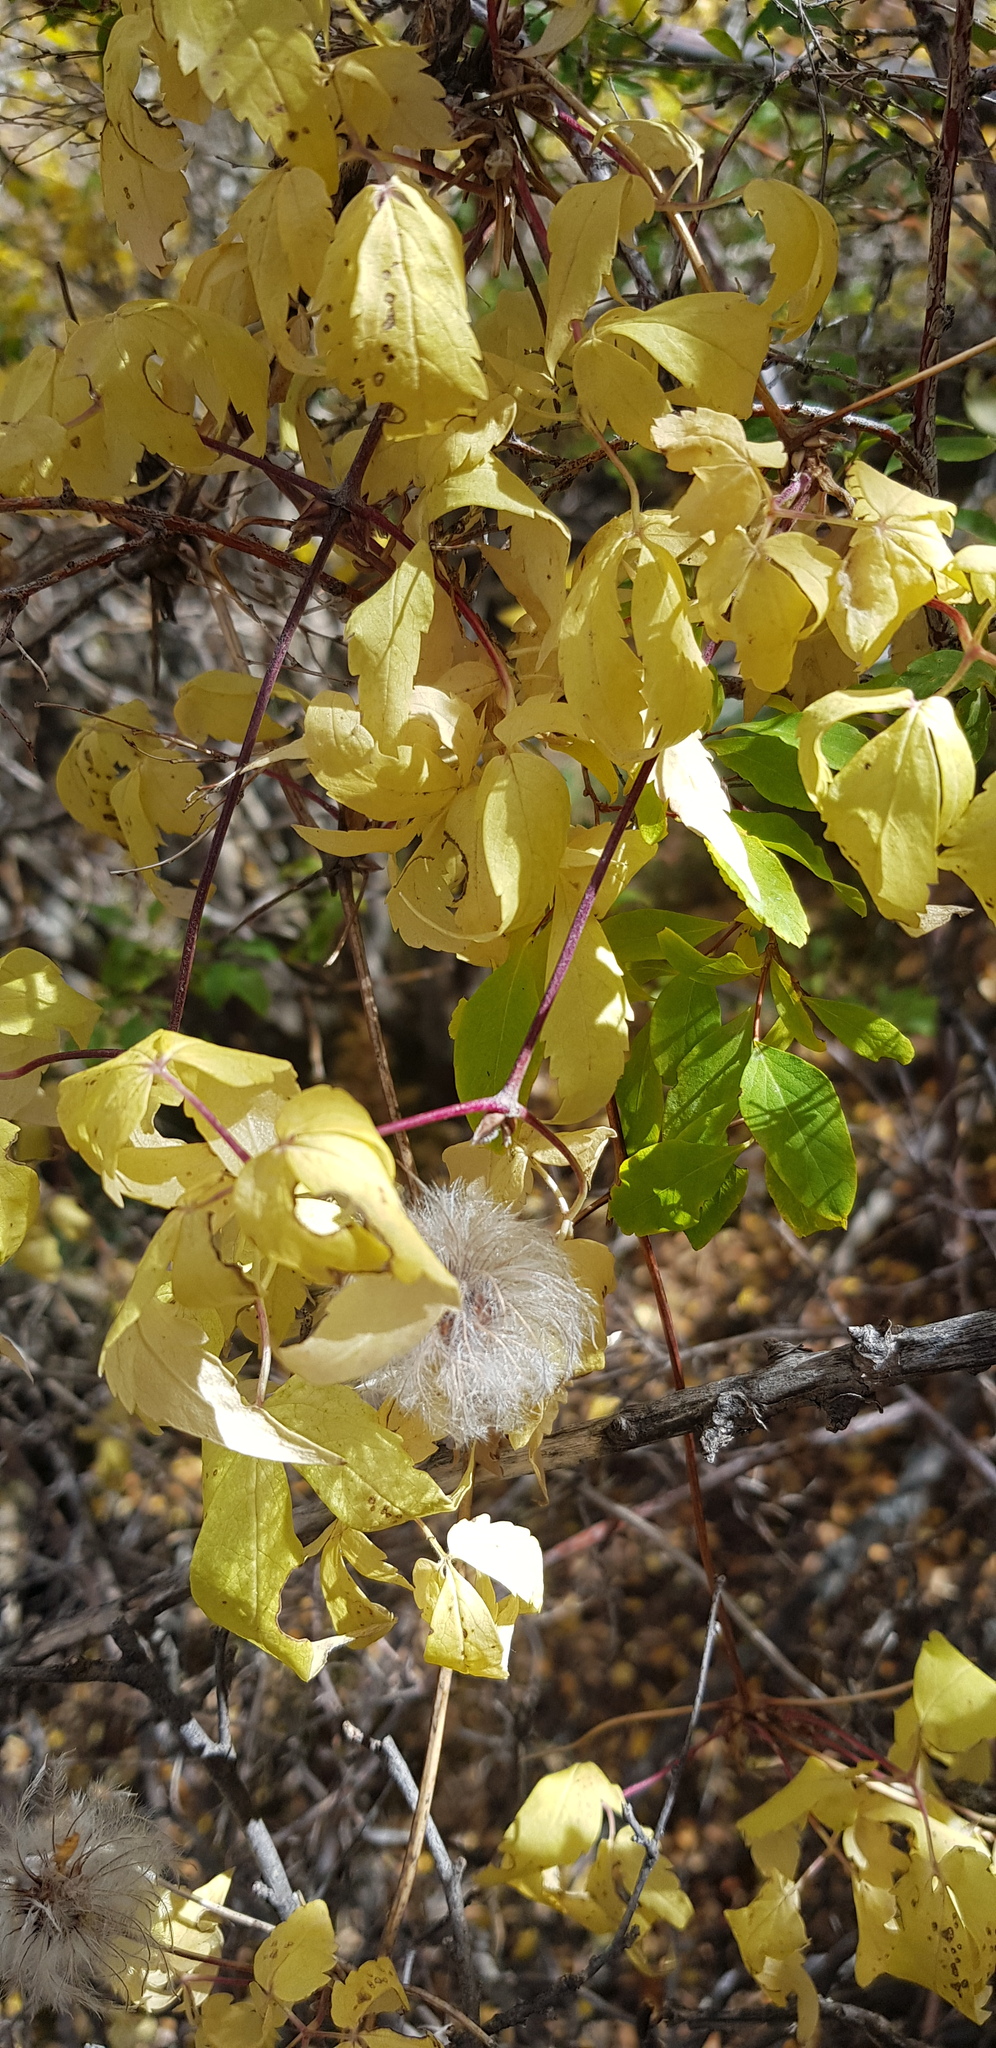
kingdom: Plantae
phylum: Tracheophyta
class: Magnoliopsida
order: Ranunculales
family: Ranunculaceae
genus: Clematis
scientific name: Clematis tangutica
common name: Orange-peel clematis
